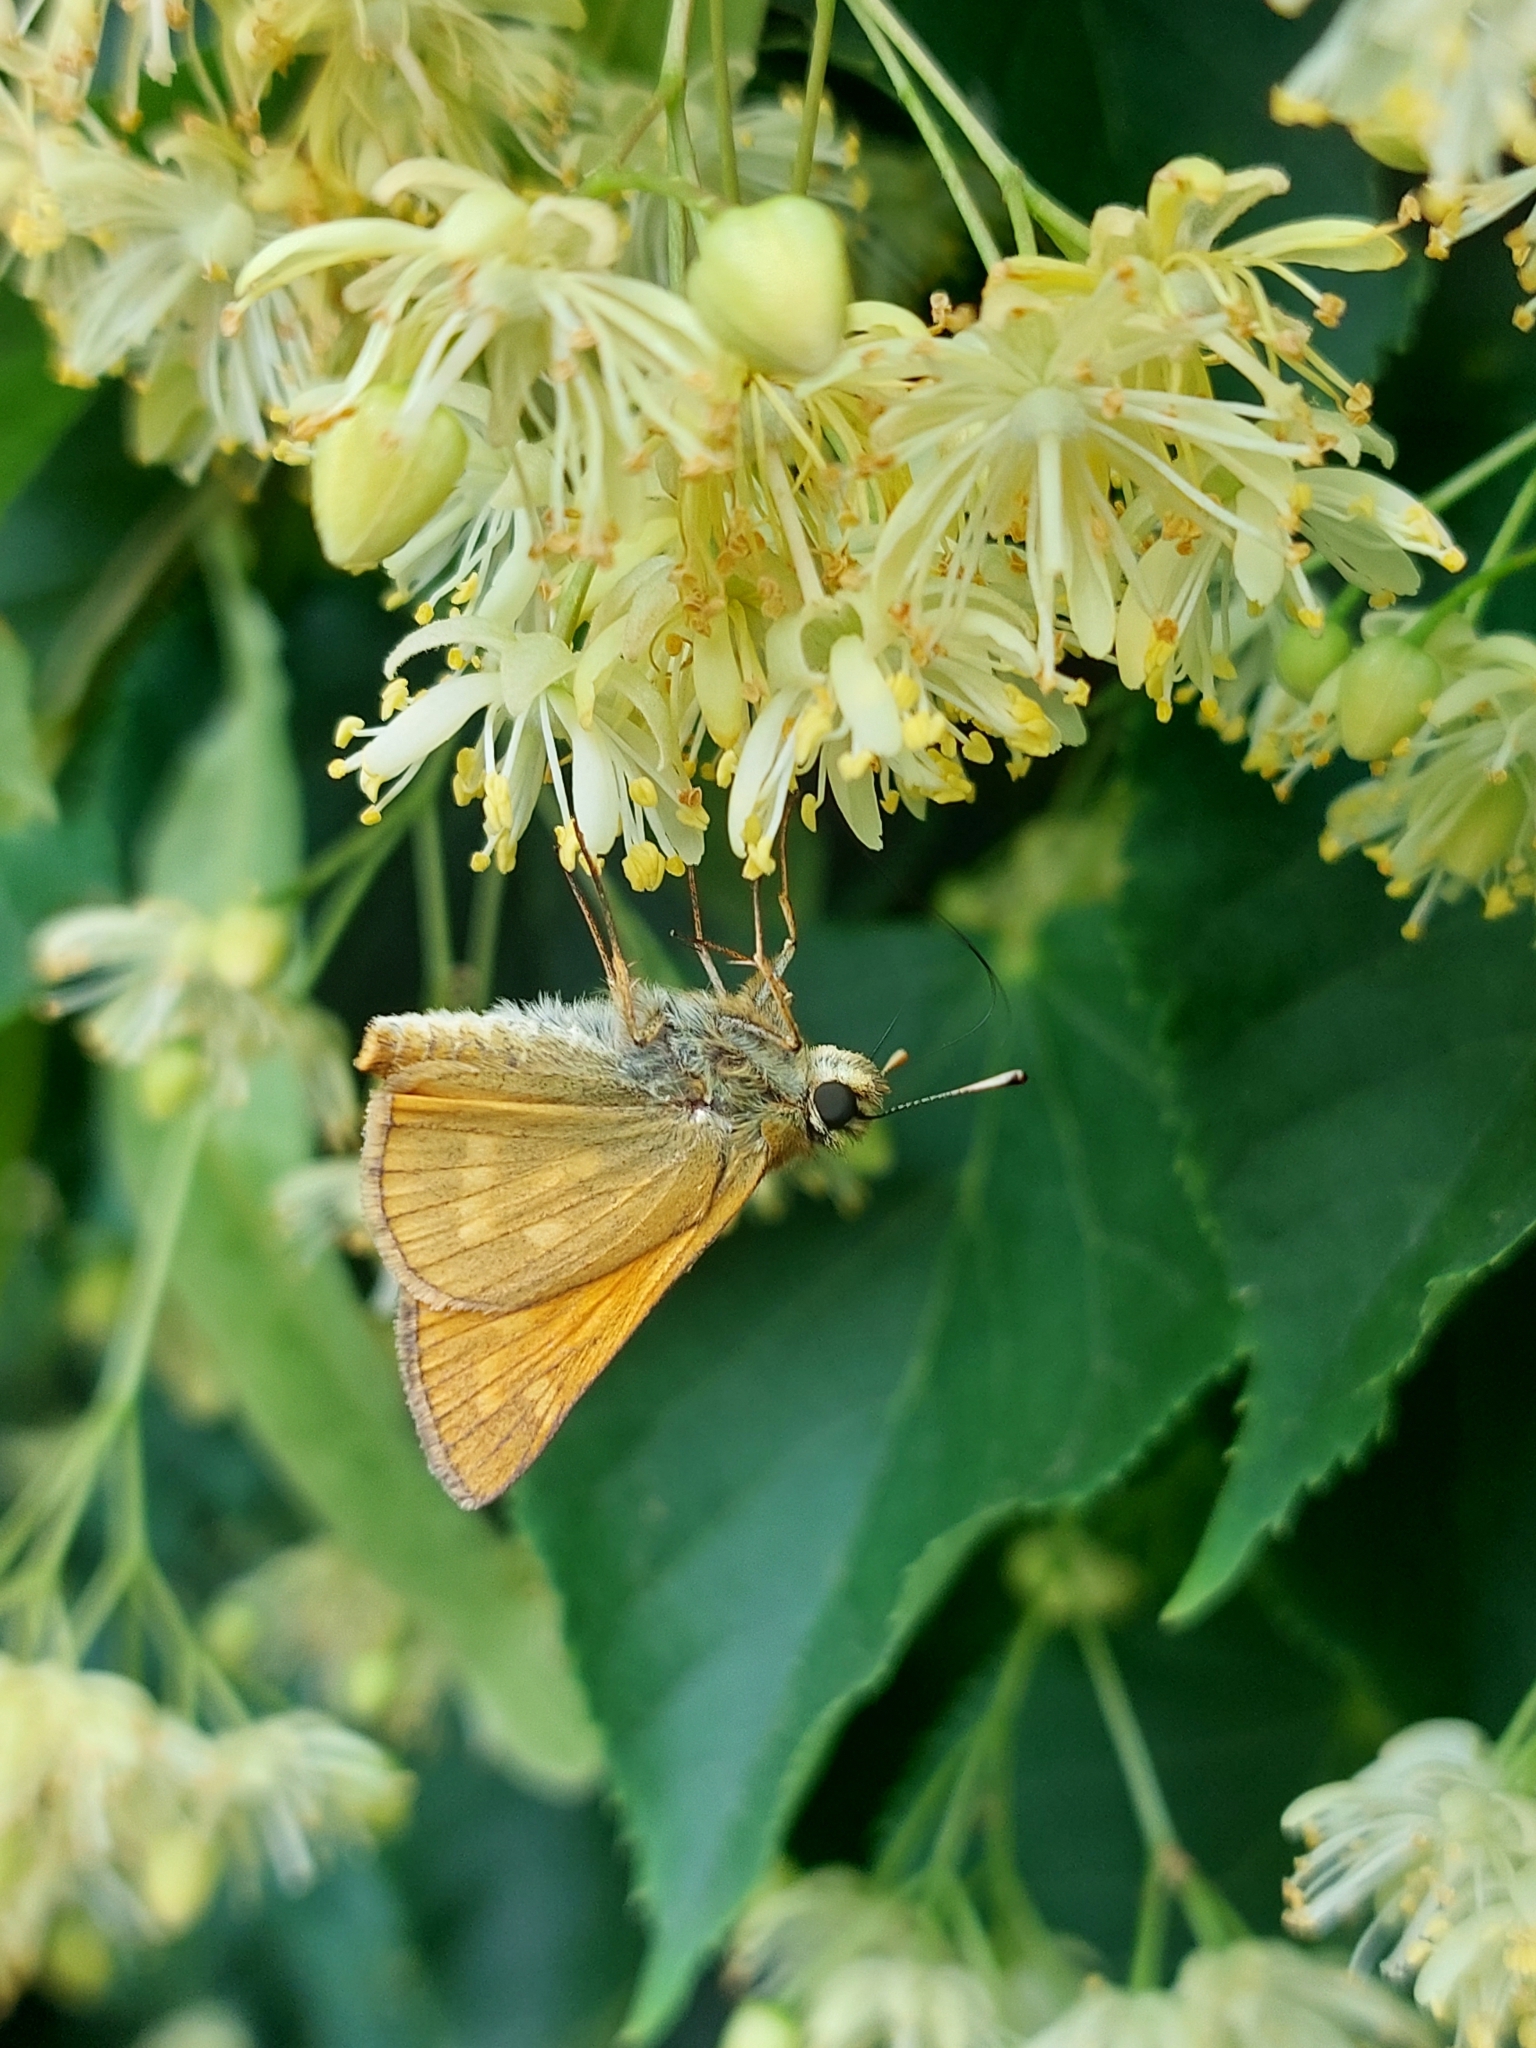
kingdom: Animalia
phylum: Arthropoda
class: Insecta
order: Lepidoptera
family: Hesperiidae
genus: Ochlodes
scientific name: Ochlodes venata
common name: Large skipper
